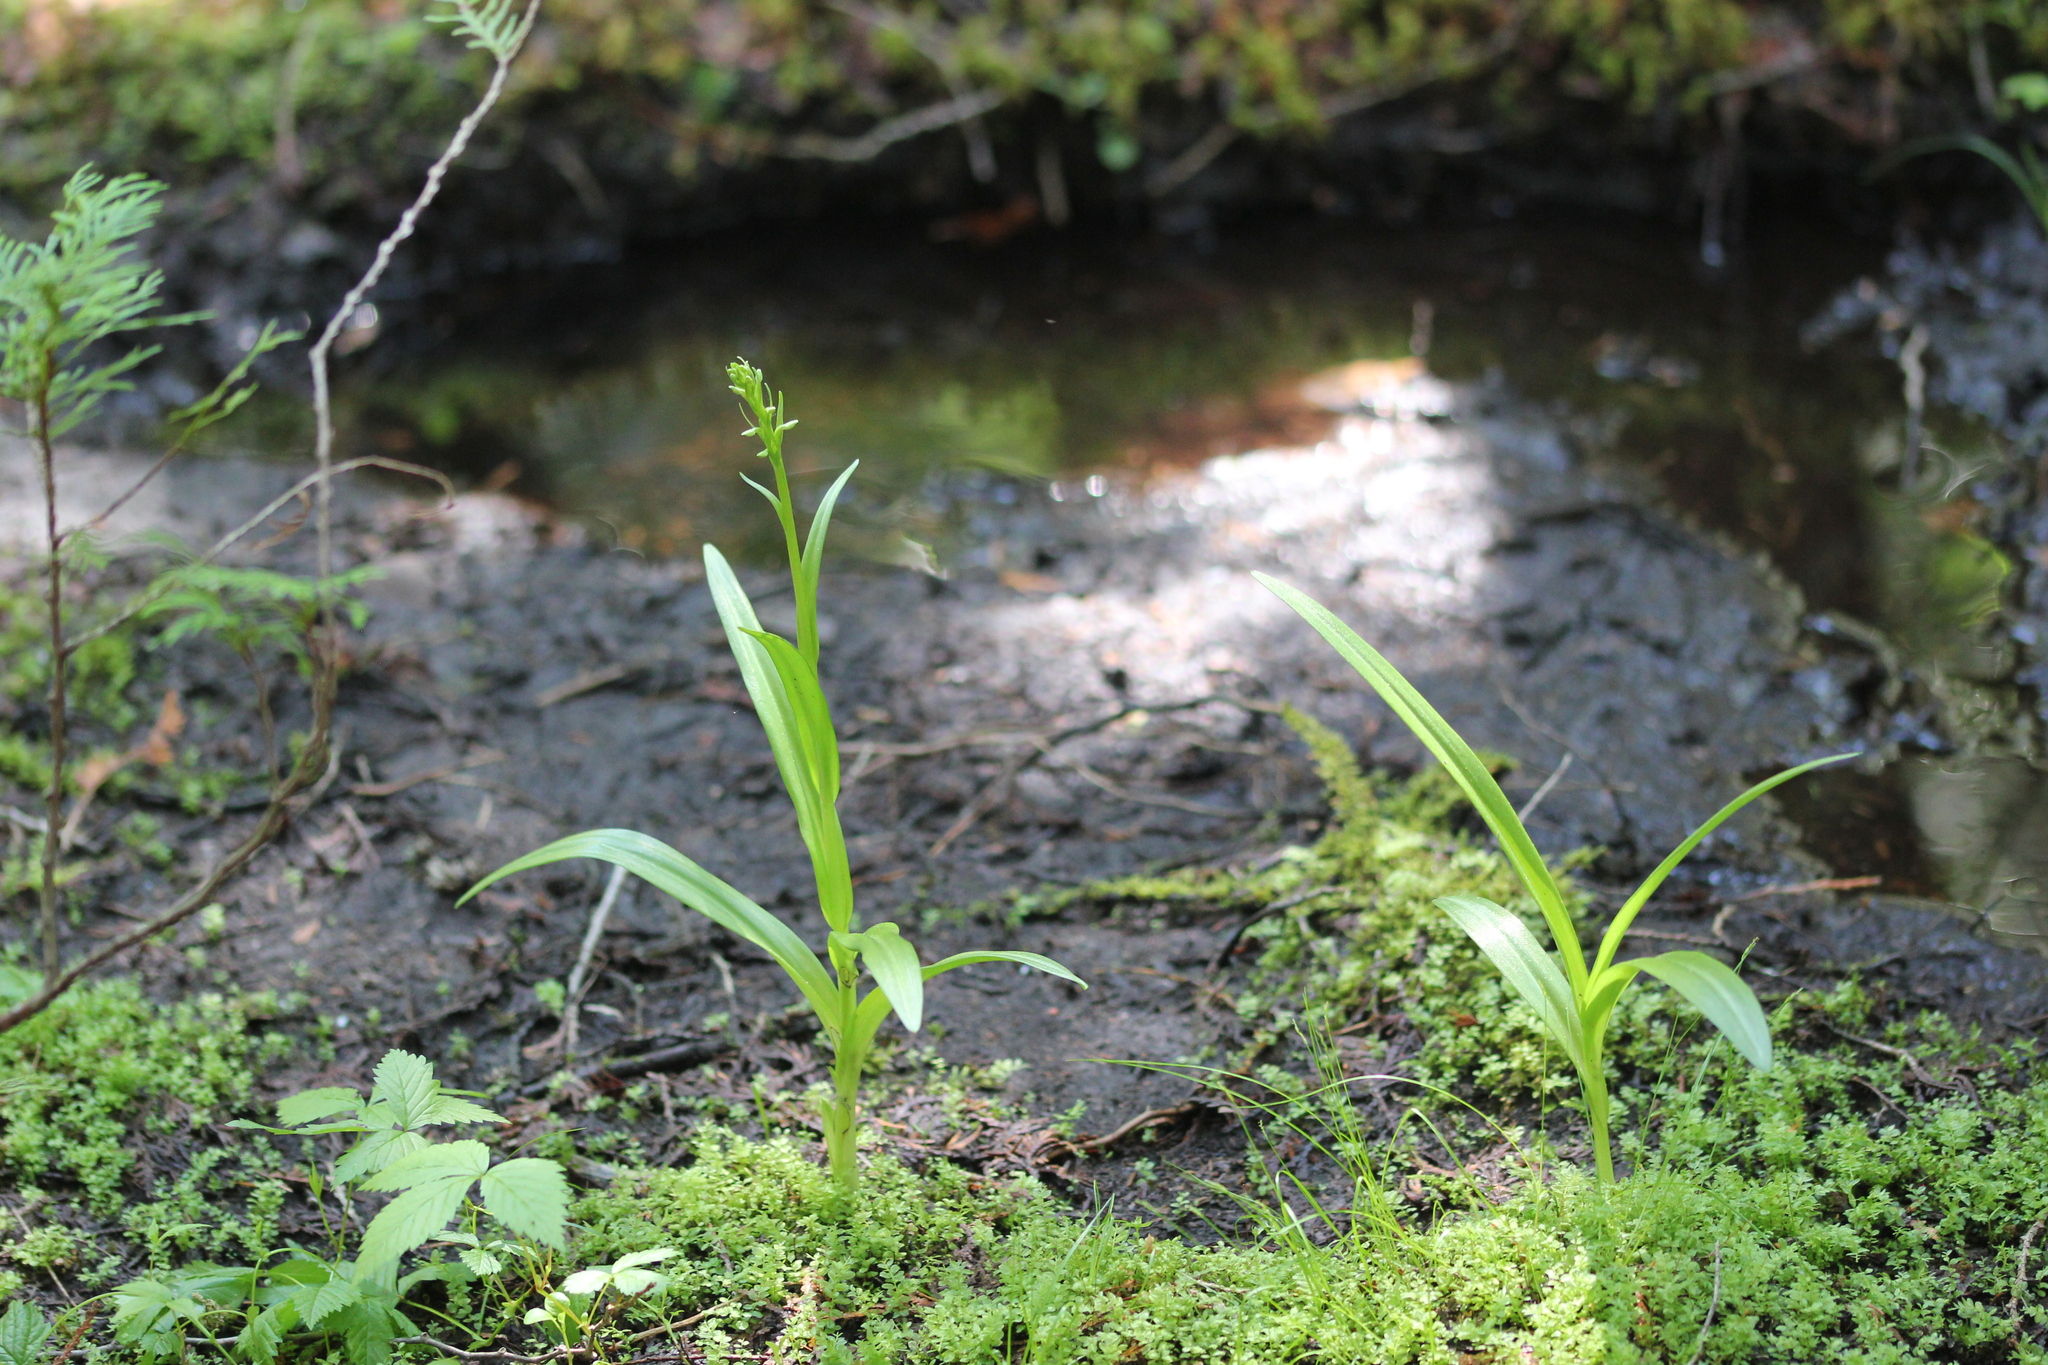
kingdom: Plantae
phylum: Tracheophyta
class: Liliopsida
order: Asparagales
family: Orchidaceae
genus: Platanthera
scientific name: Platanthera huronensis
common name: Fragrant green orchid
